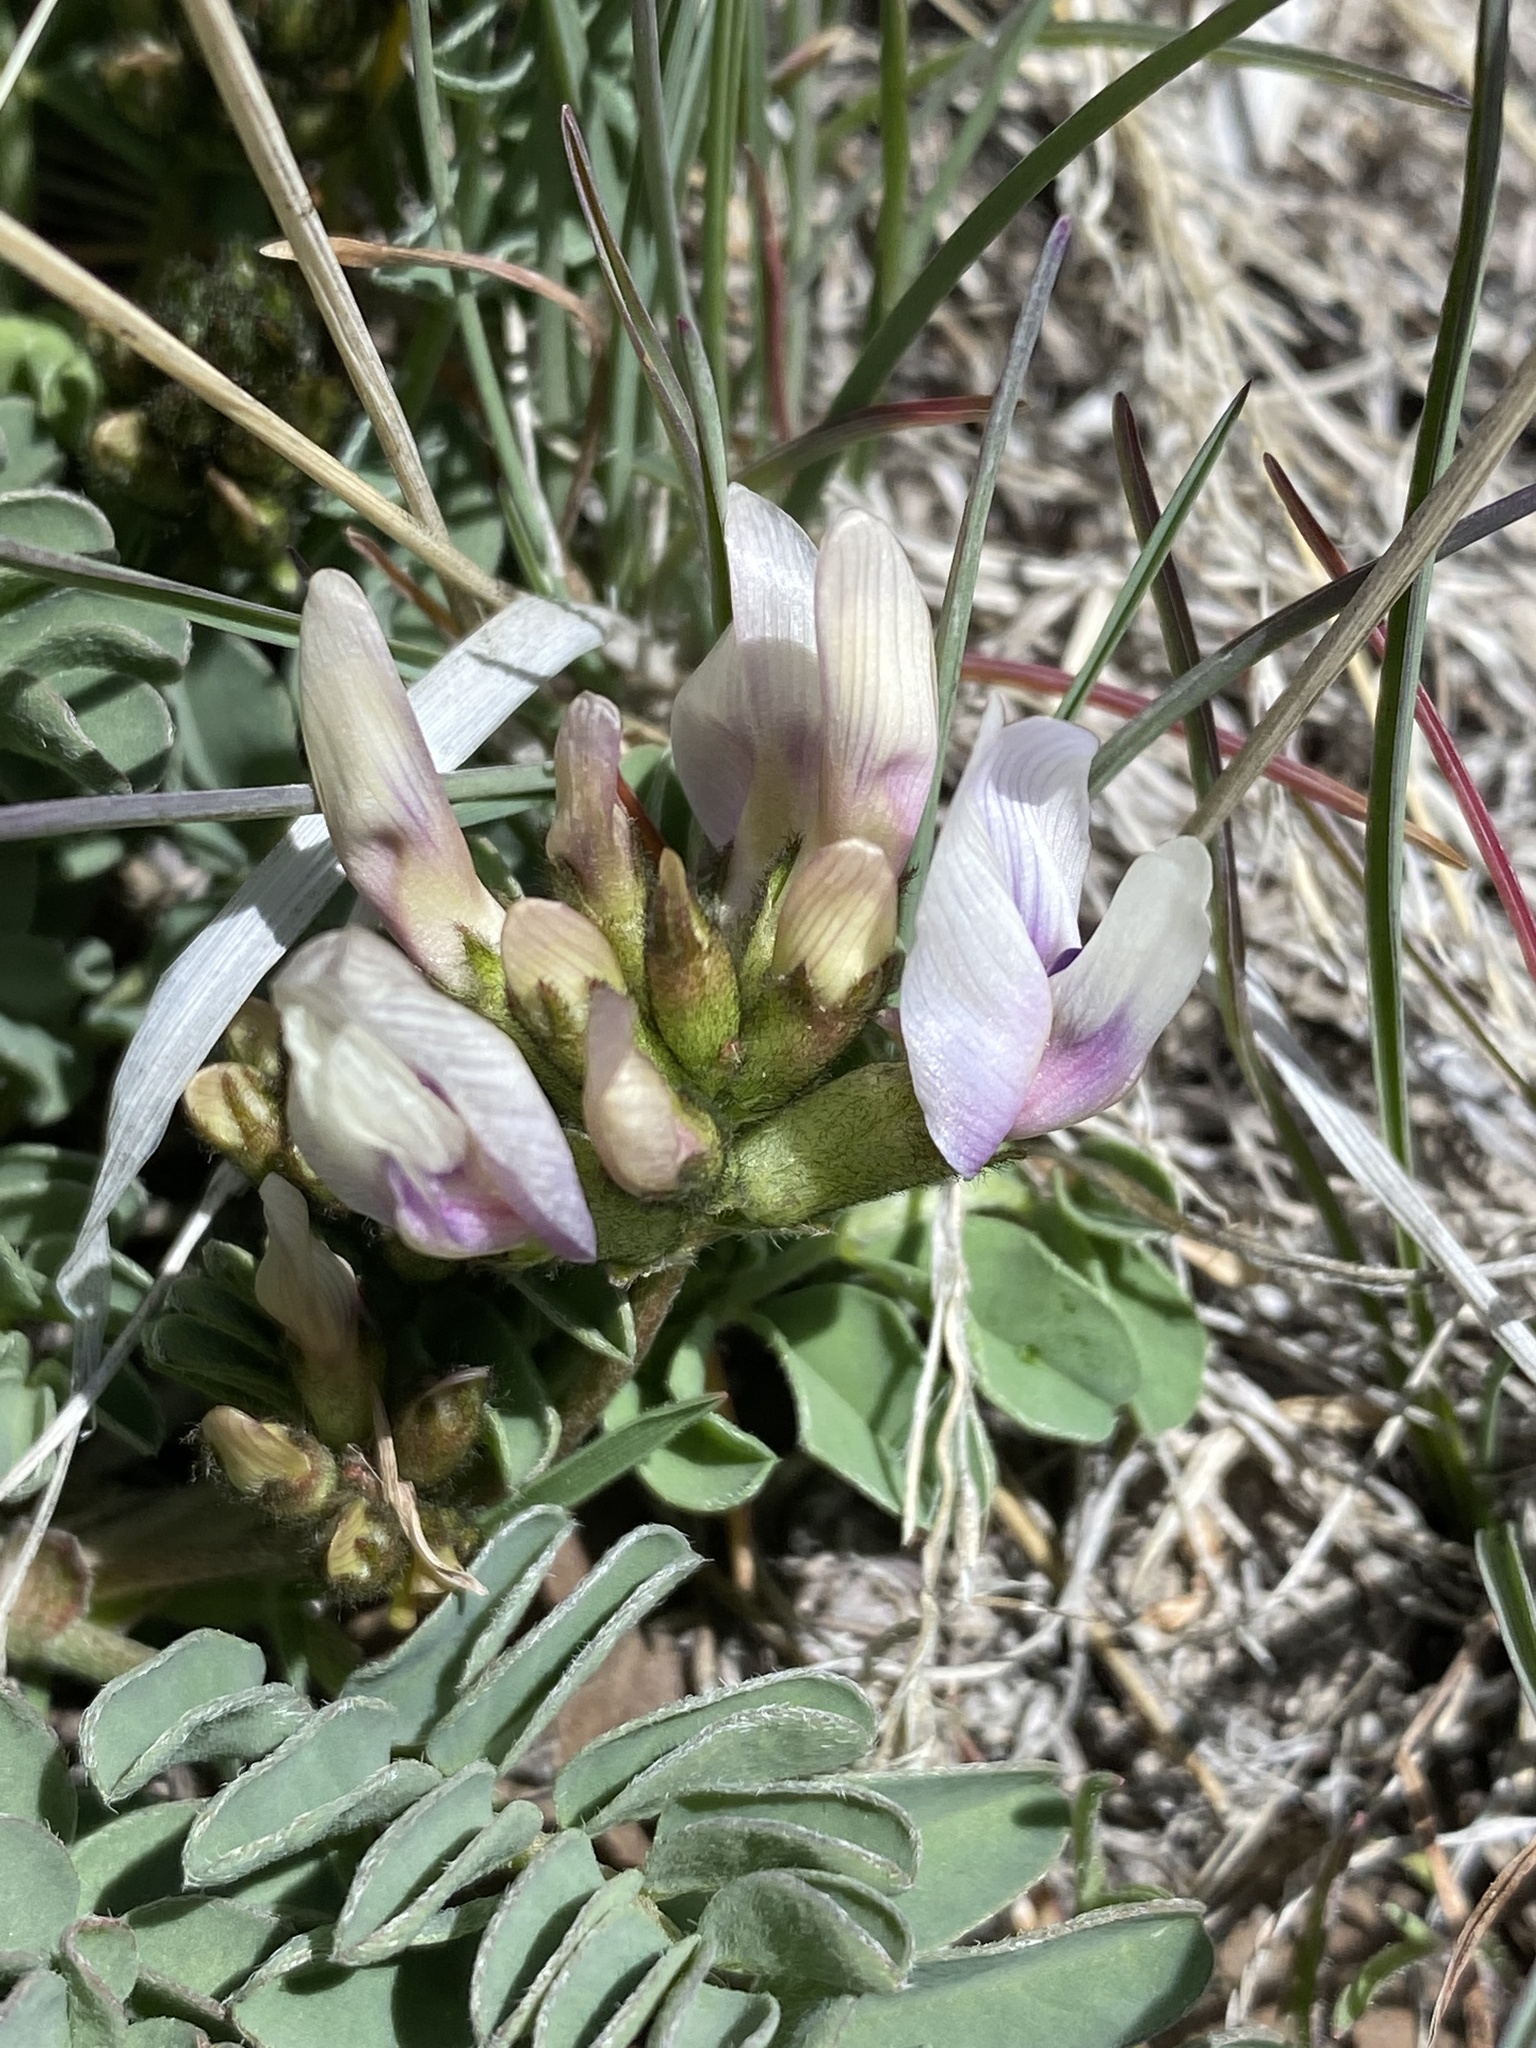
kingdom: Plantae
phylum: Tracheophyta
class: Magnoliopsida
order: Fabales
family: Fabaceae
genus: Astragalus
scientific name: Astragalus cibarius
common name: Browse milk-vetch
